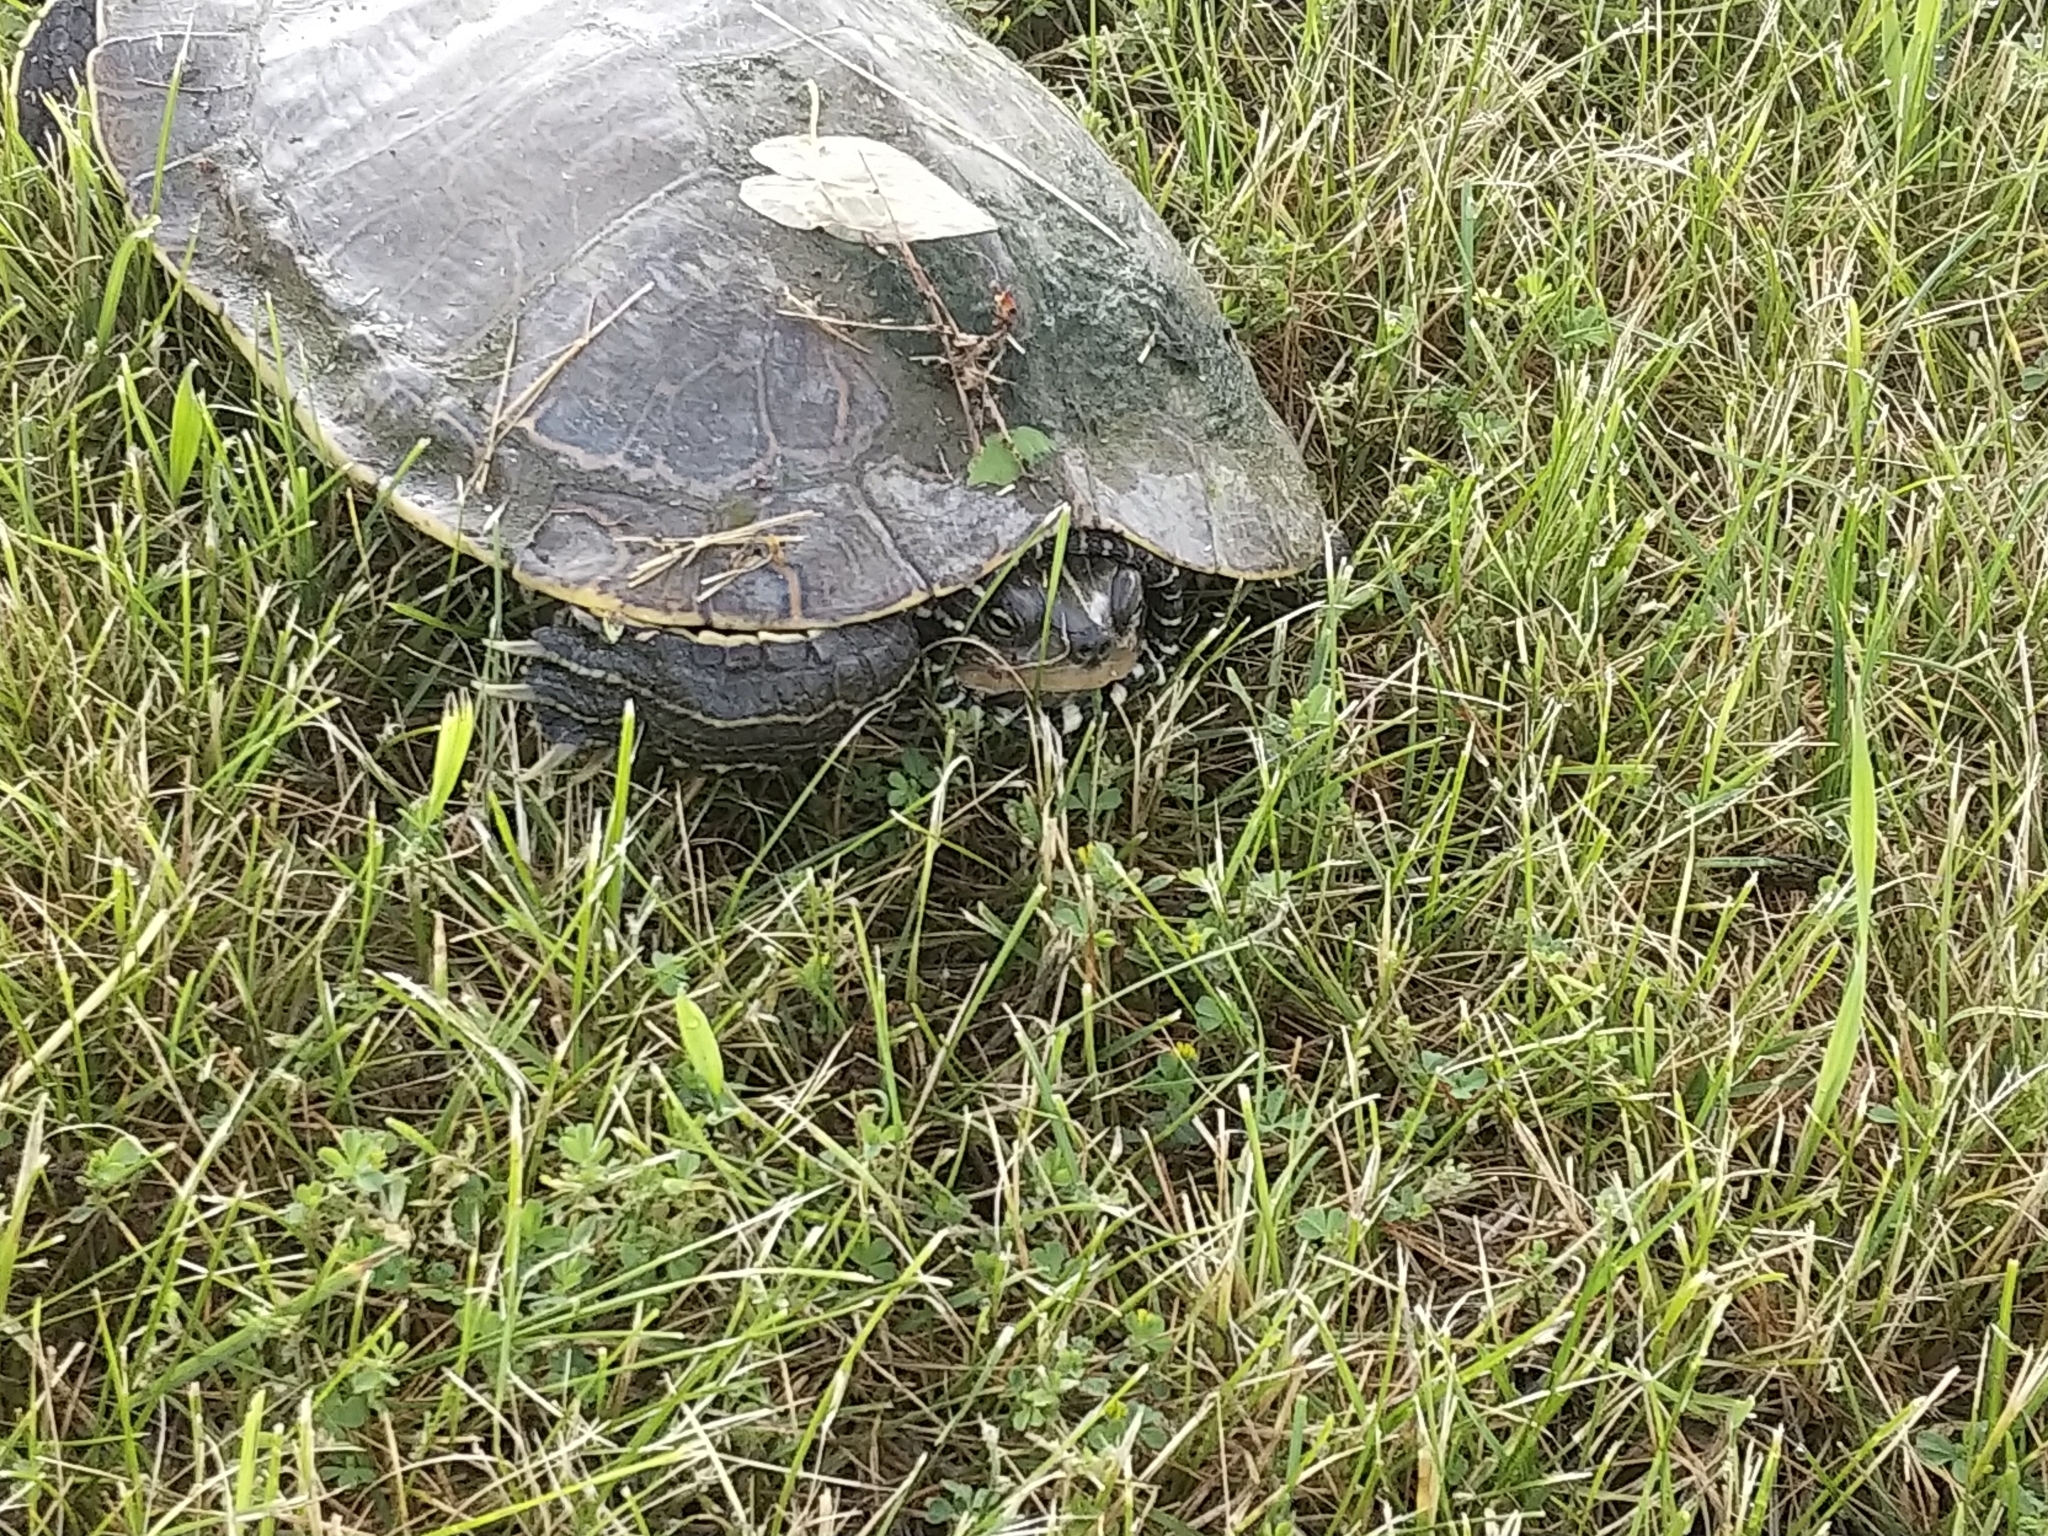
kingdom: Animalia
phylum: Chordata
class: Testudines
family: Emydidae
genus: Graptemys
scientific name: Graptemys geographica
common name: Common map turtle
